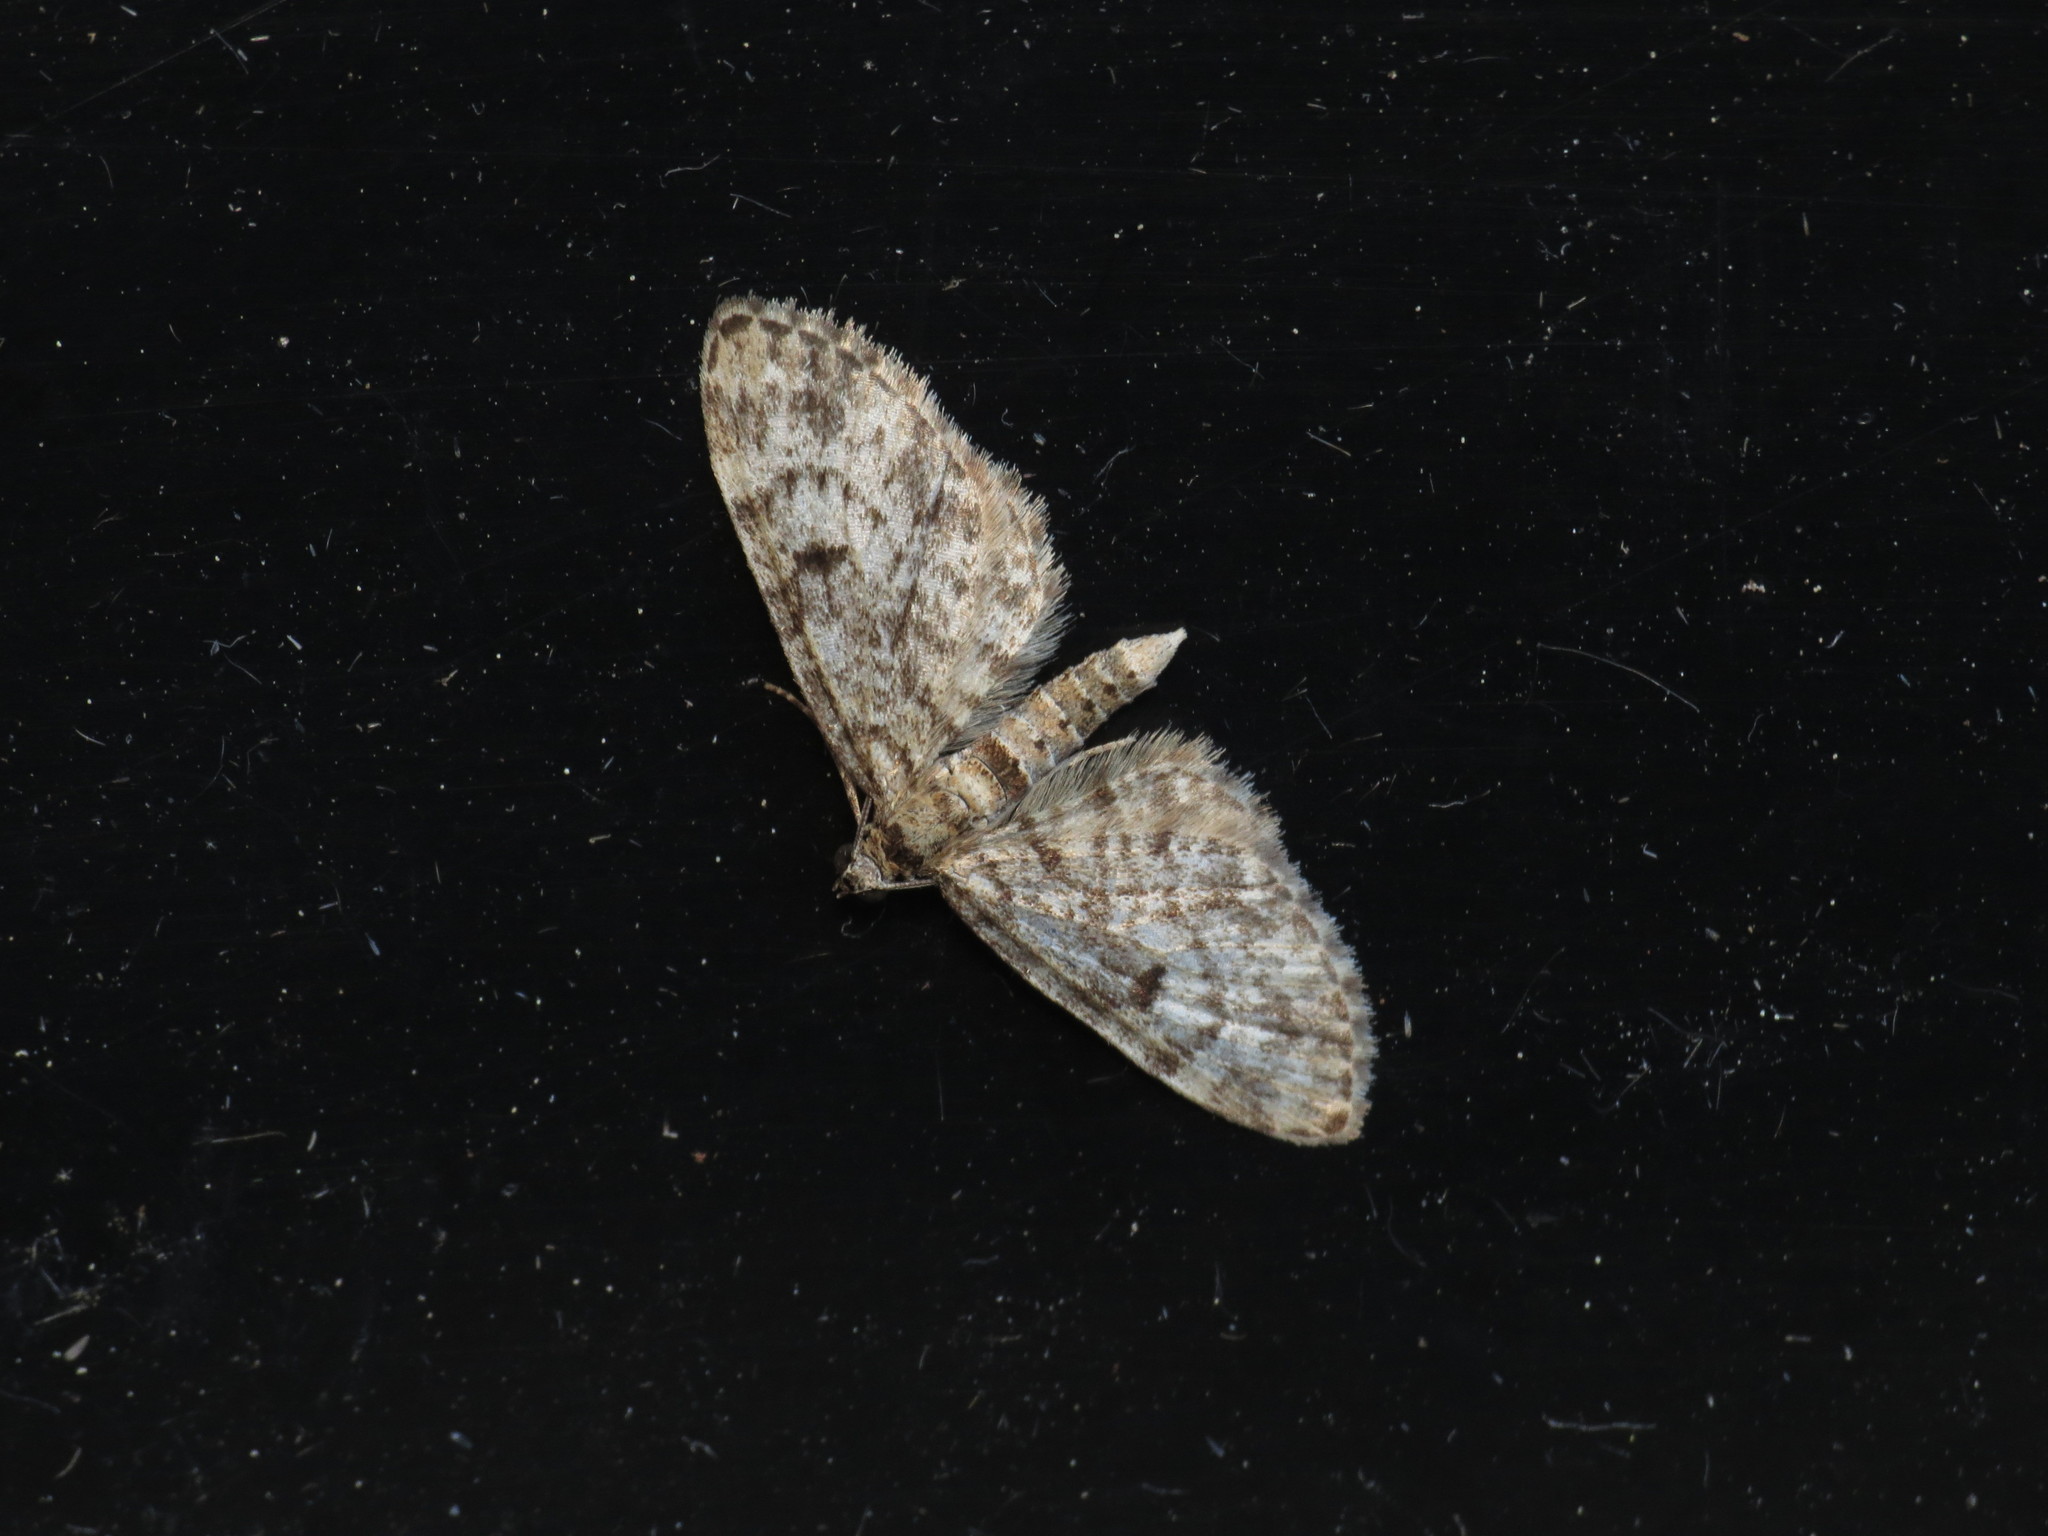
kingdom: Animalia
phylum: Arthropoda
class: Insecta
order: Lepidoptera
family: Geometridae
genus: Eupithecia
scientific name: Eupithecia tantillaria
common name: Dwarf pug
